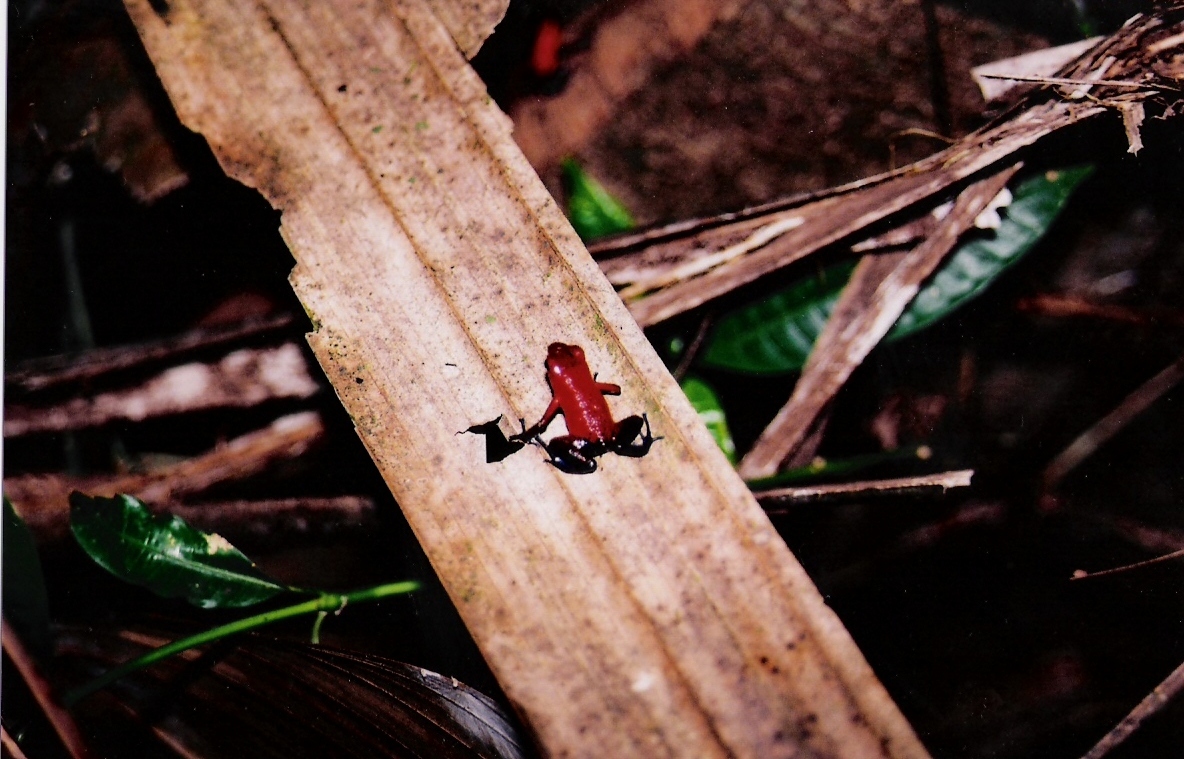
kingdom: Animalia
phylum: Chordata
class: Amphibia
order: Anura
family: Dendrobatidae
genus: Oophaga
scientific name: Oophaga pumilio
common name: Flaming poison frog
